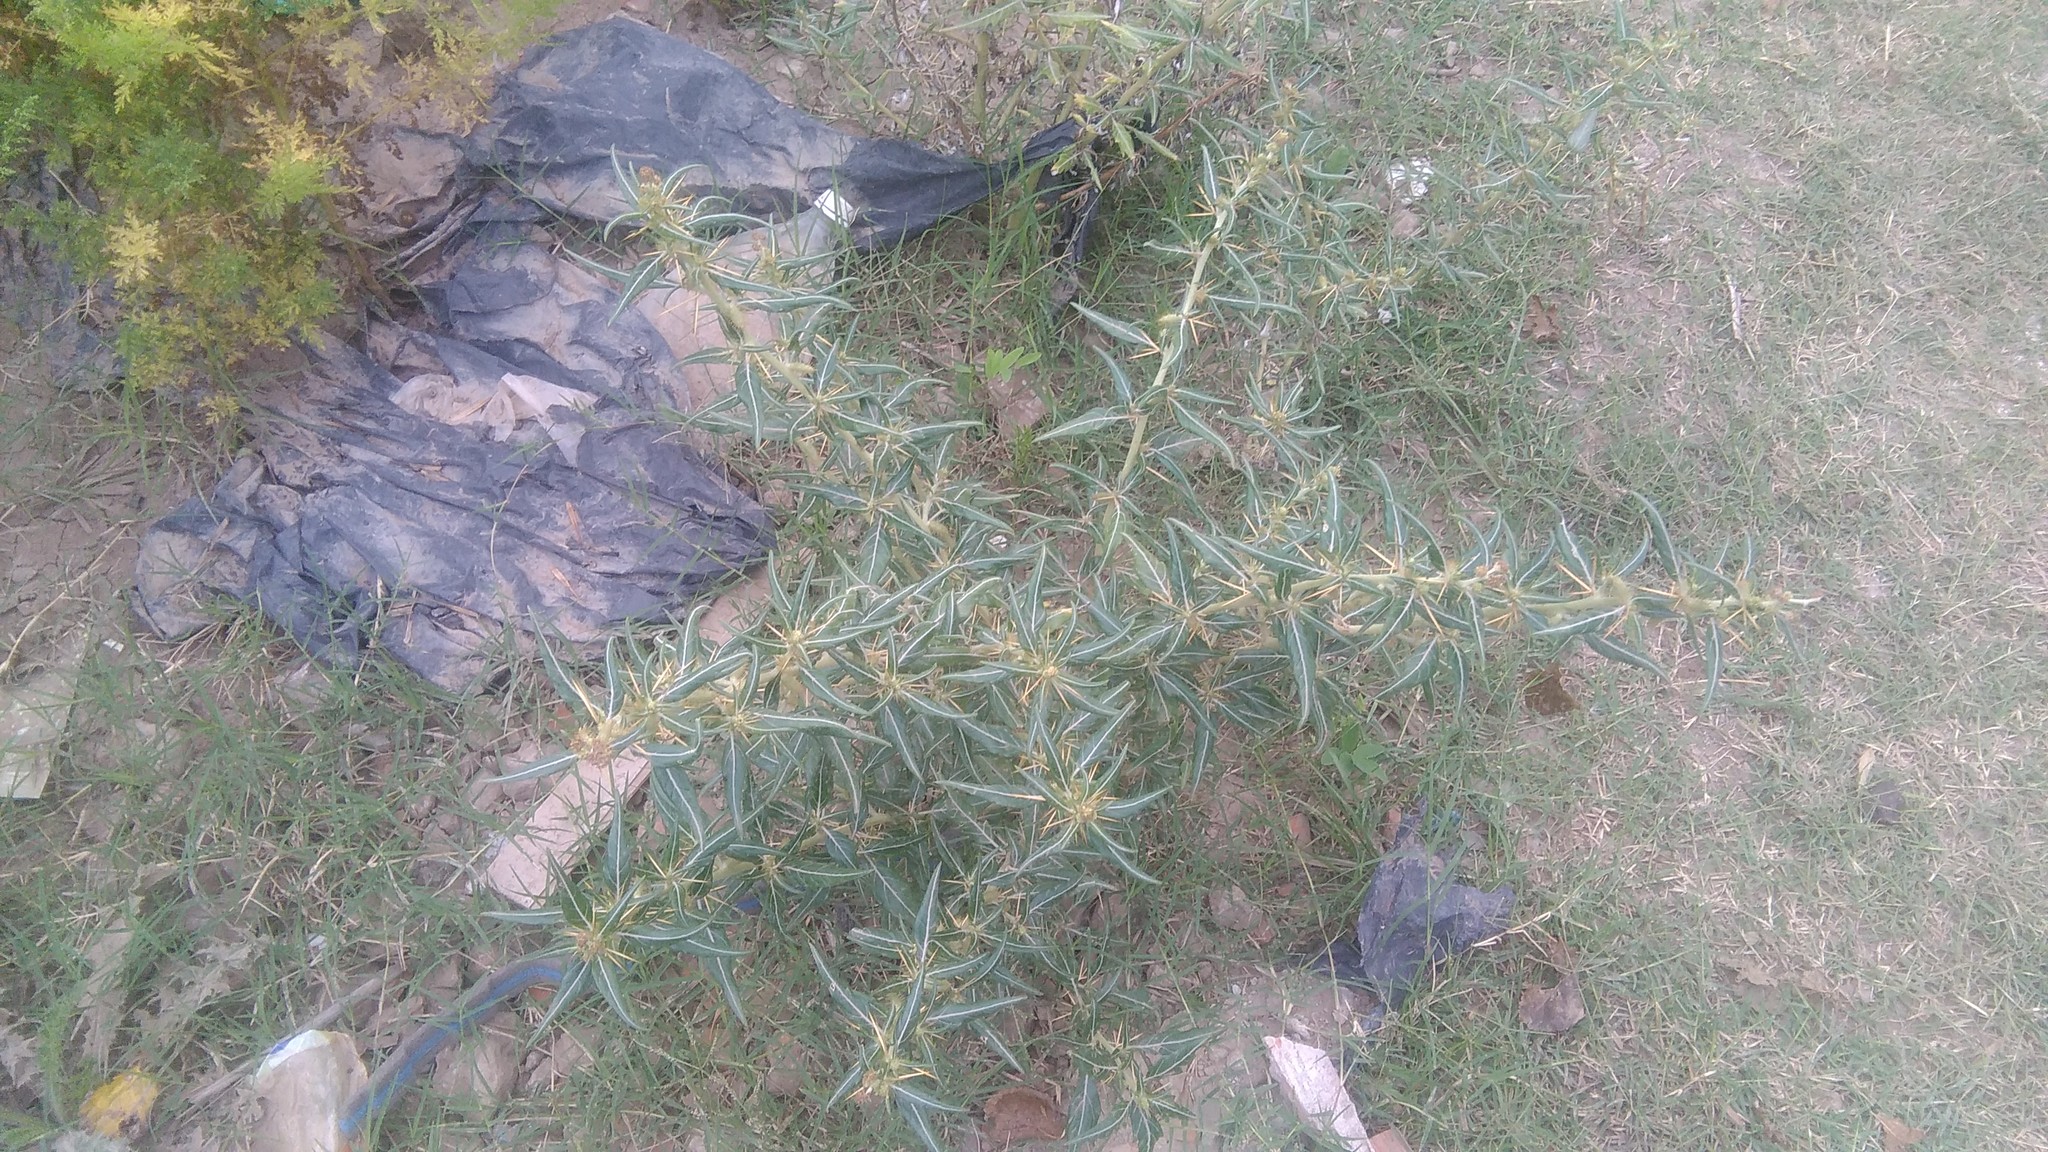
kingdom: Plantae
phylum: Tracheophyta
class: Magnoliopsida
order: Asterales
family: Asteraceae
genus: Xanthium
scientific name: Xanthium spinosum
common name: Spiny cocklebur
